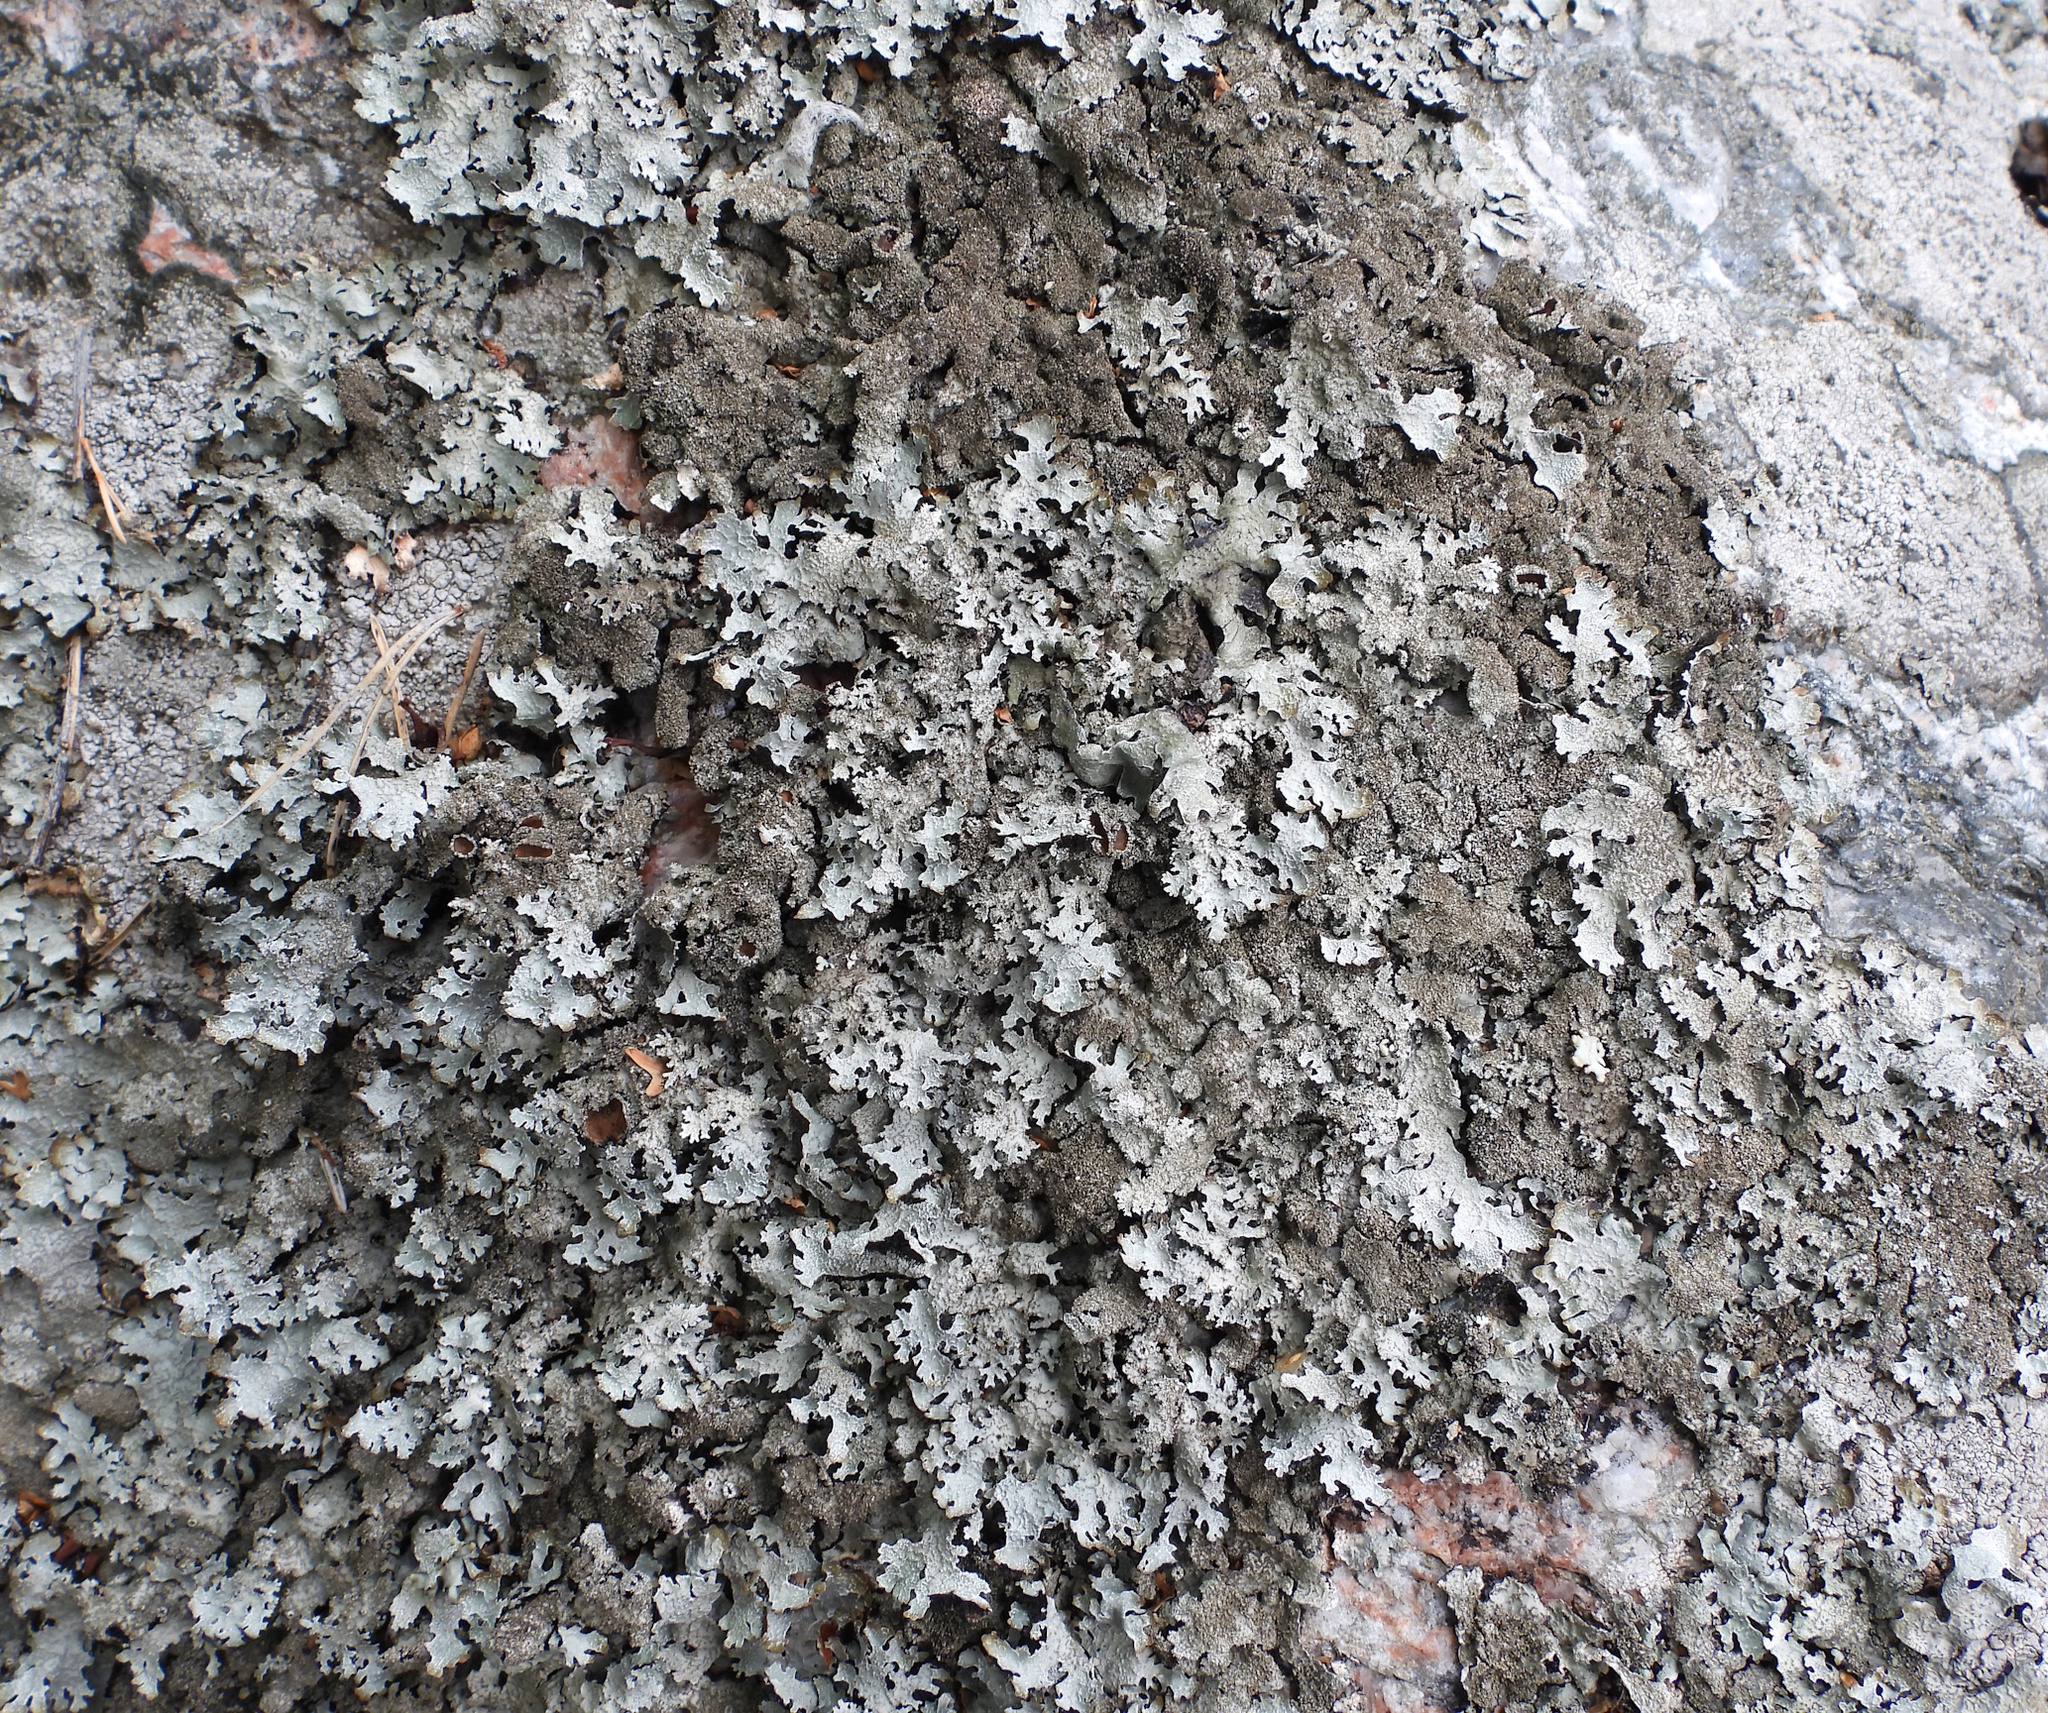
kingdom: Fungi
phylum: Ascomycota
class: Lecanoromycetes
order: Lecanorales
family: Parmeliaceae
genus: Parmelia
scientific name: Parmelia saxatilis
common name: Salted shield lichen
